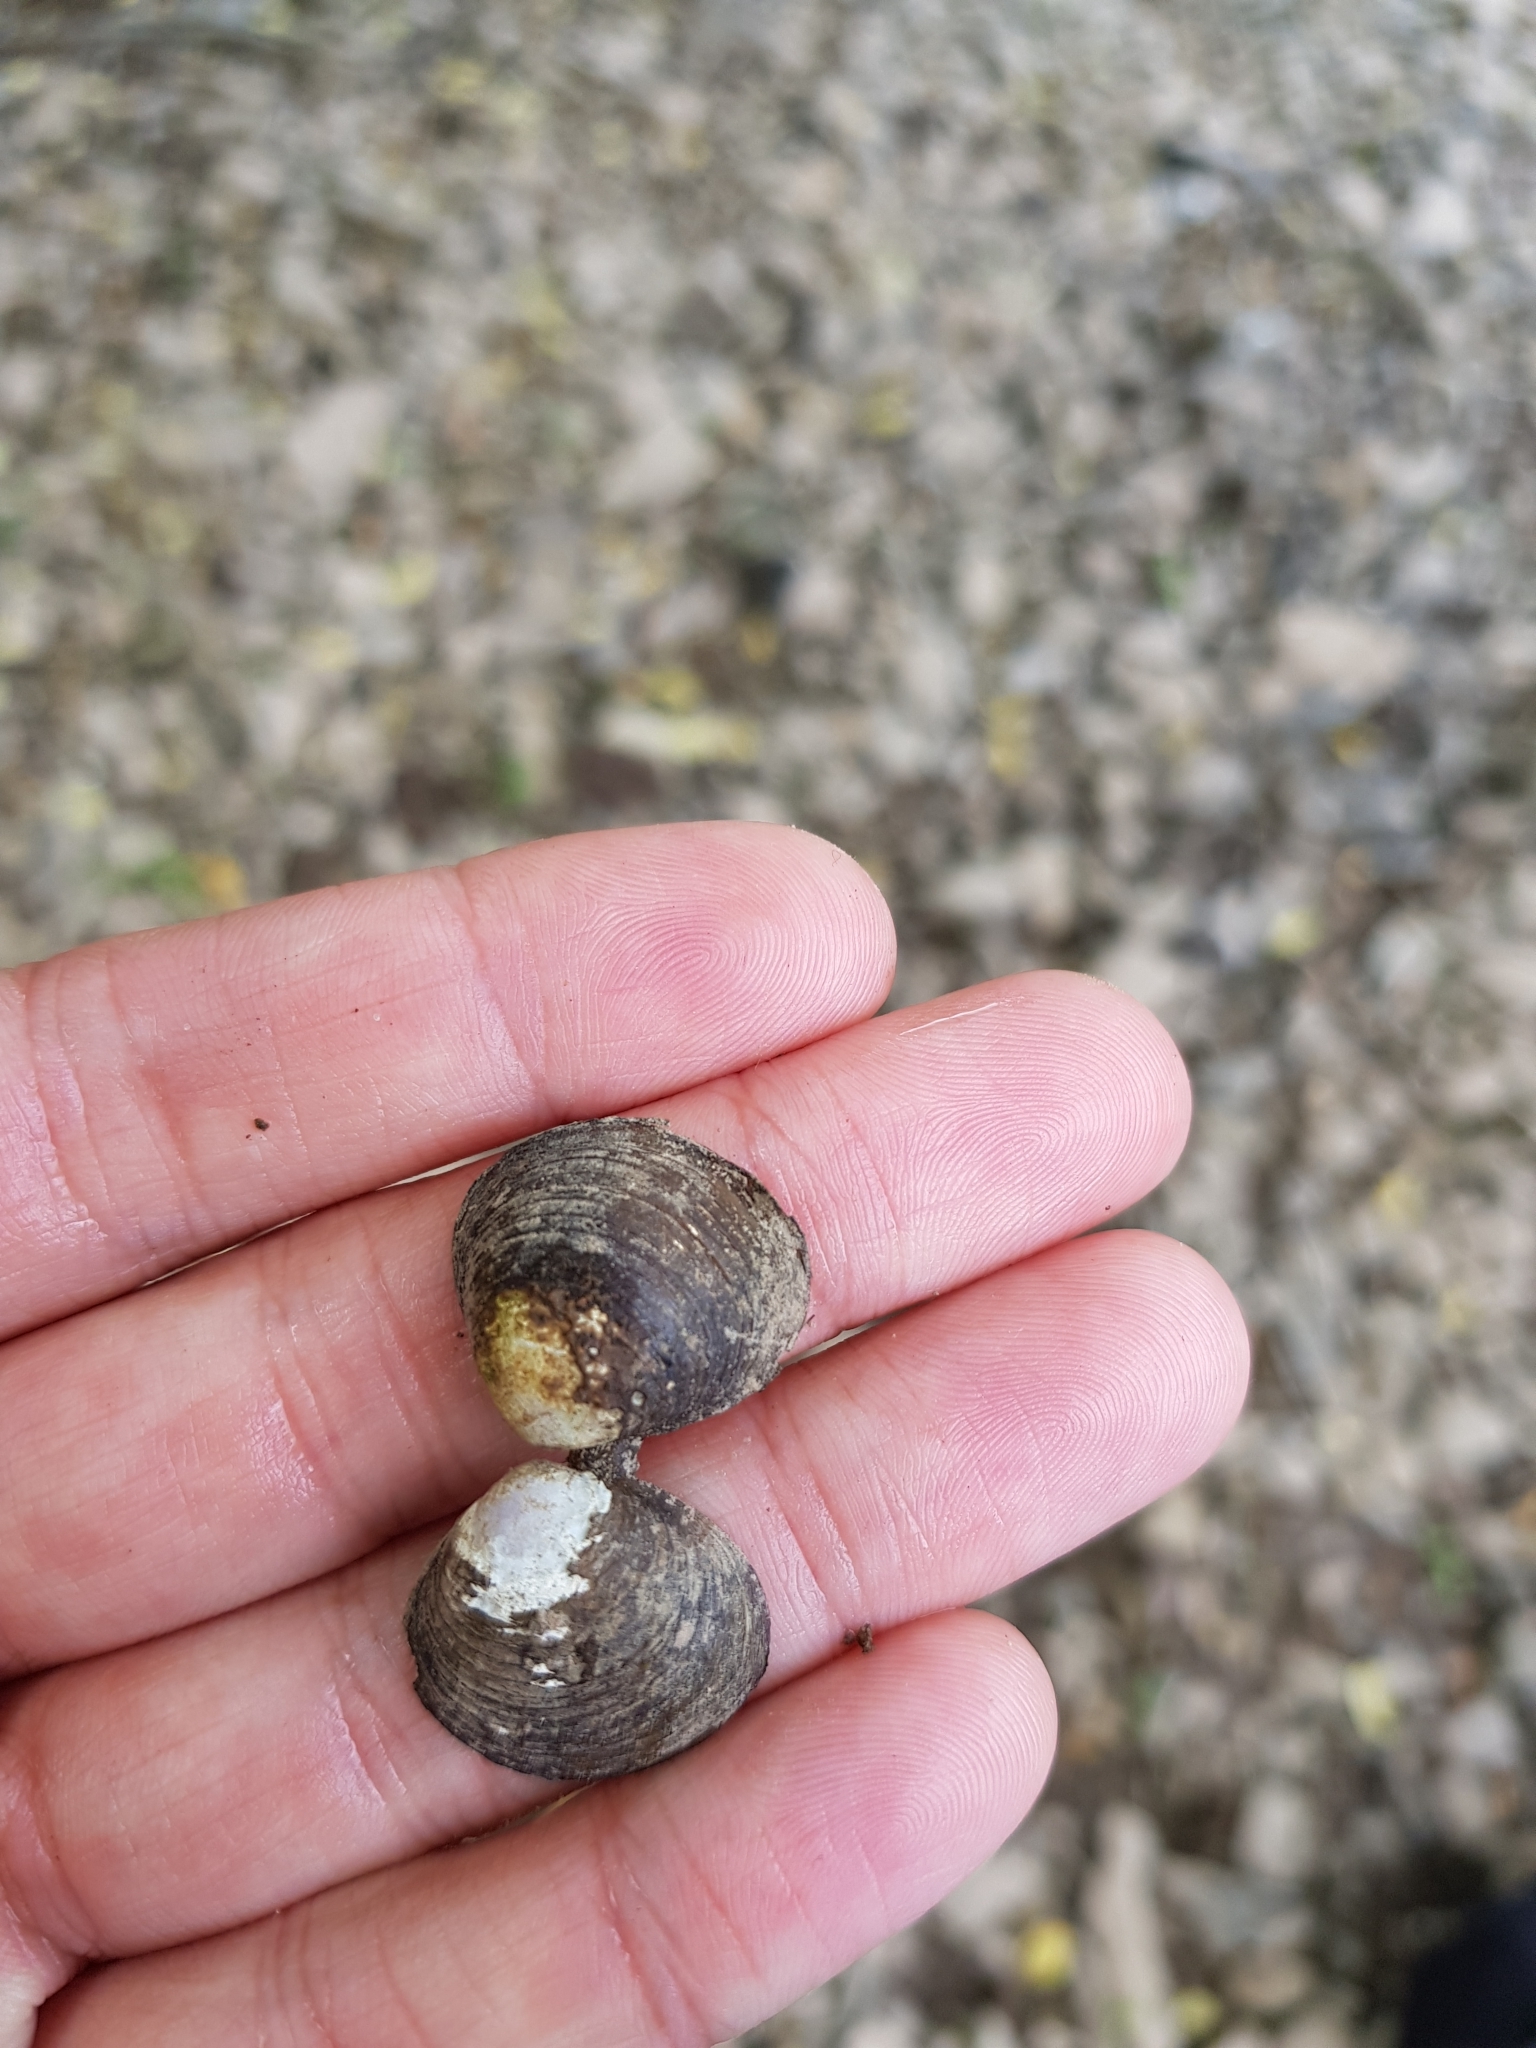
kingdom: Animalia
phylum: Mollusca
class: Bivalvia
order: Venerida
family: Cyrenidae
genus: Corbicula
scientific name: Corbicula fluminea
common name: Asian clam
